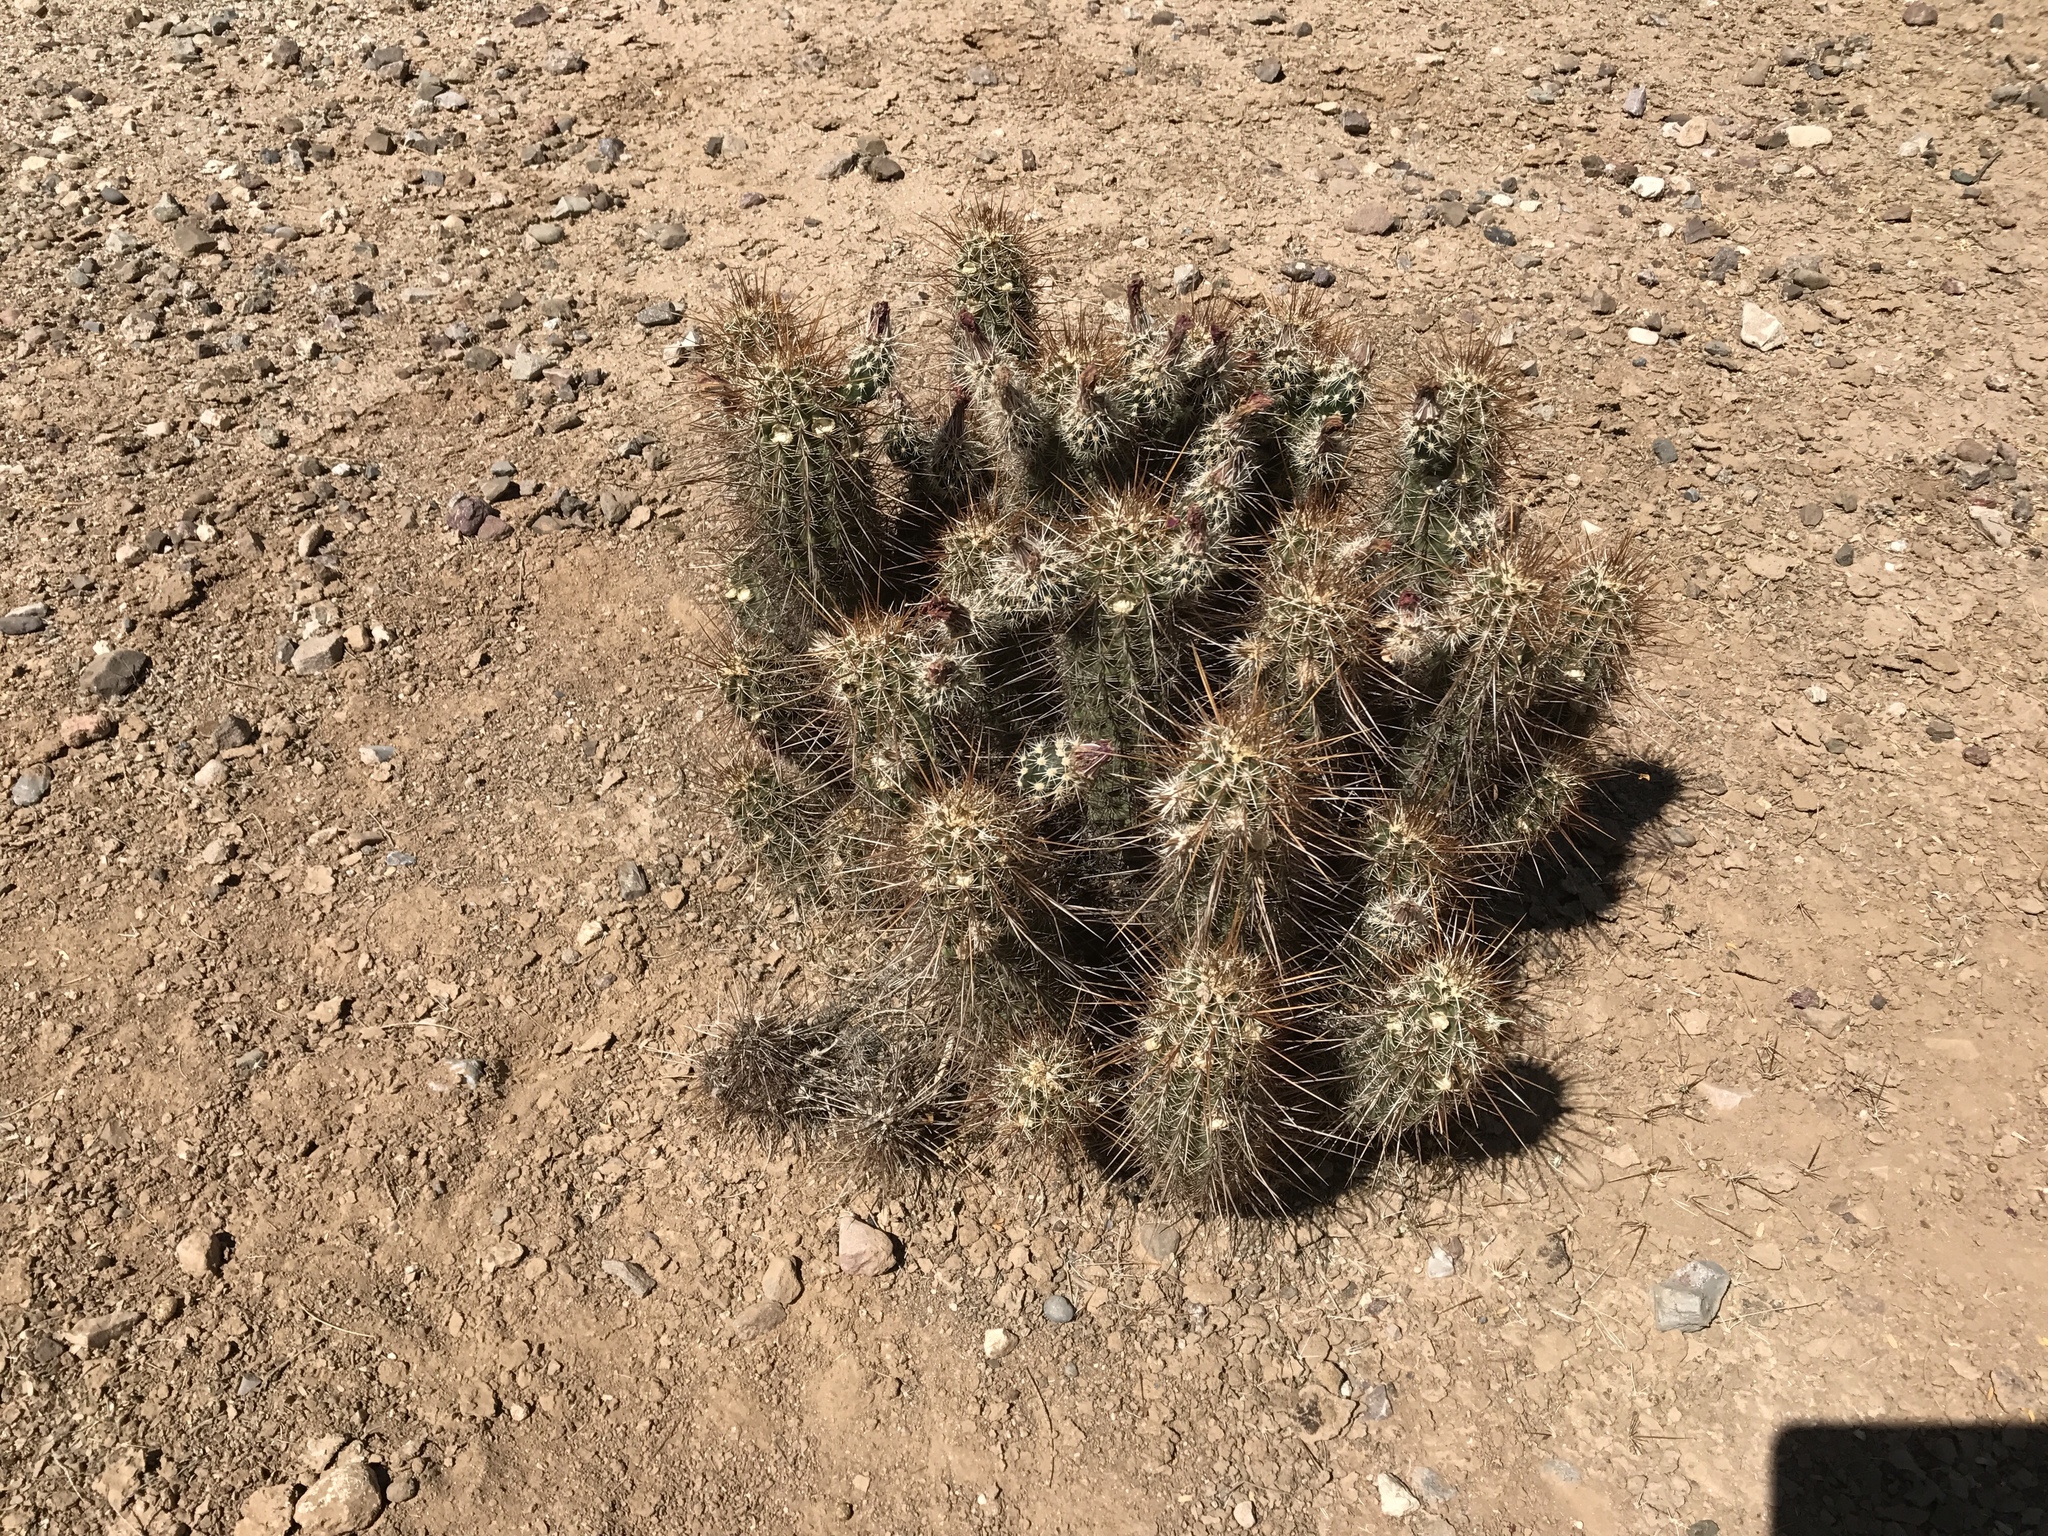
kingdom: Plantae
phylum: Tracheophyta
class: Magnoliopsida
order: Caryophyllales
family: Cactaceae
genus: Echinocereus
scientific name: Echinocereus engelmannii
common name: Engelmann's hedgehog cactus
